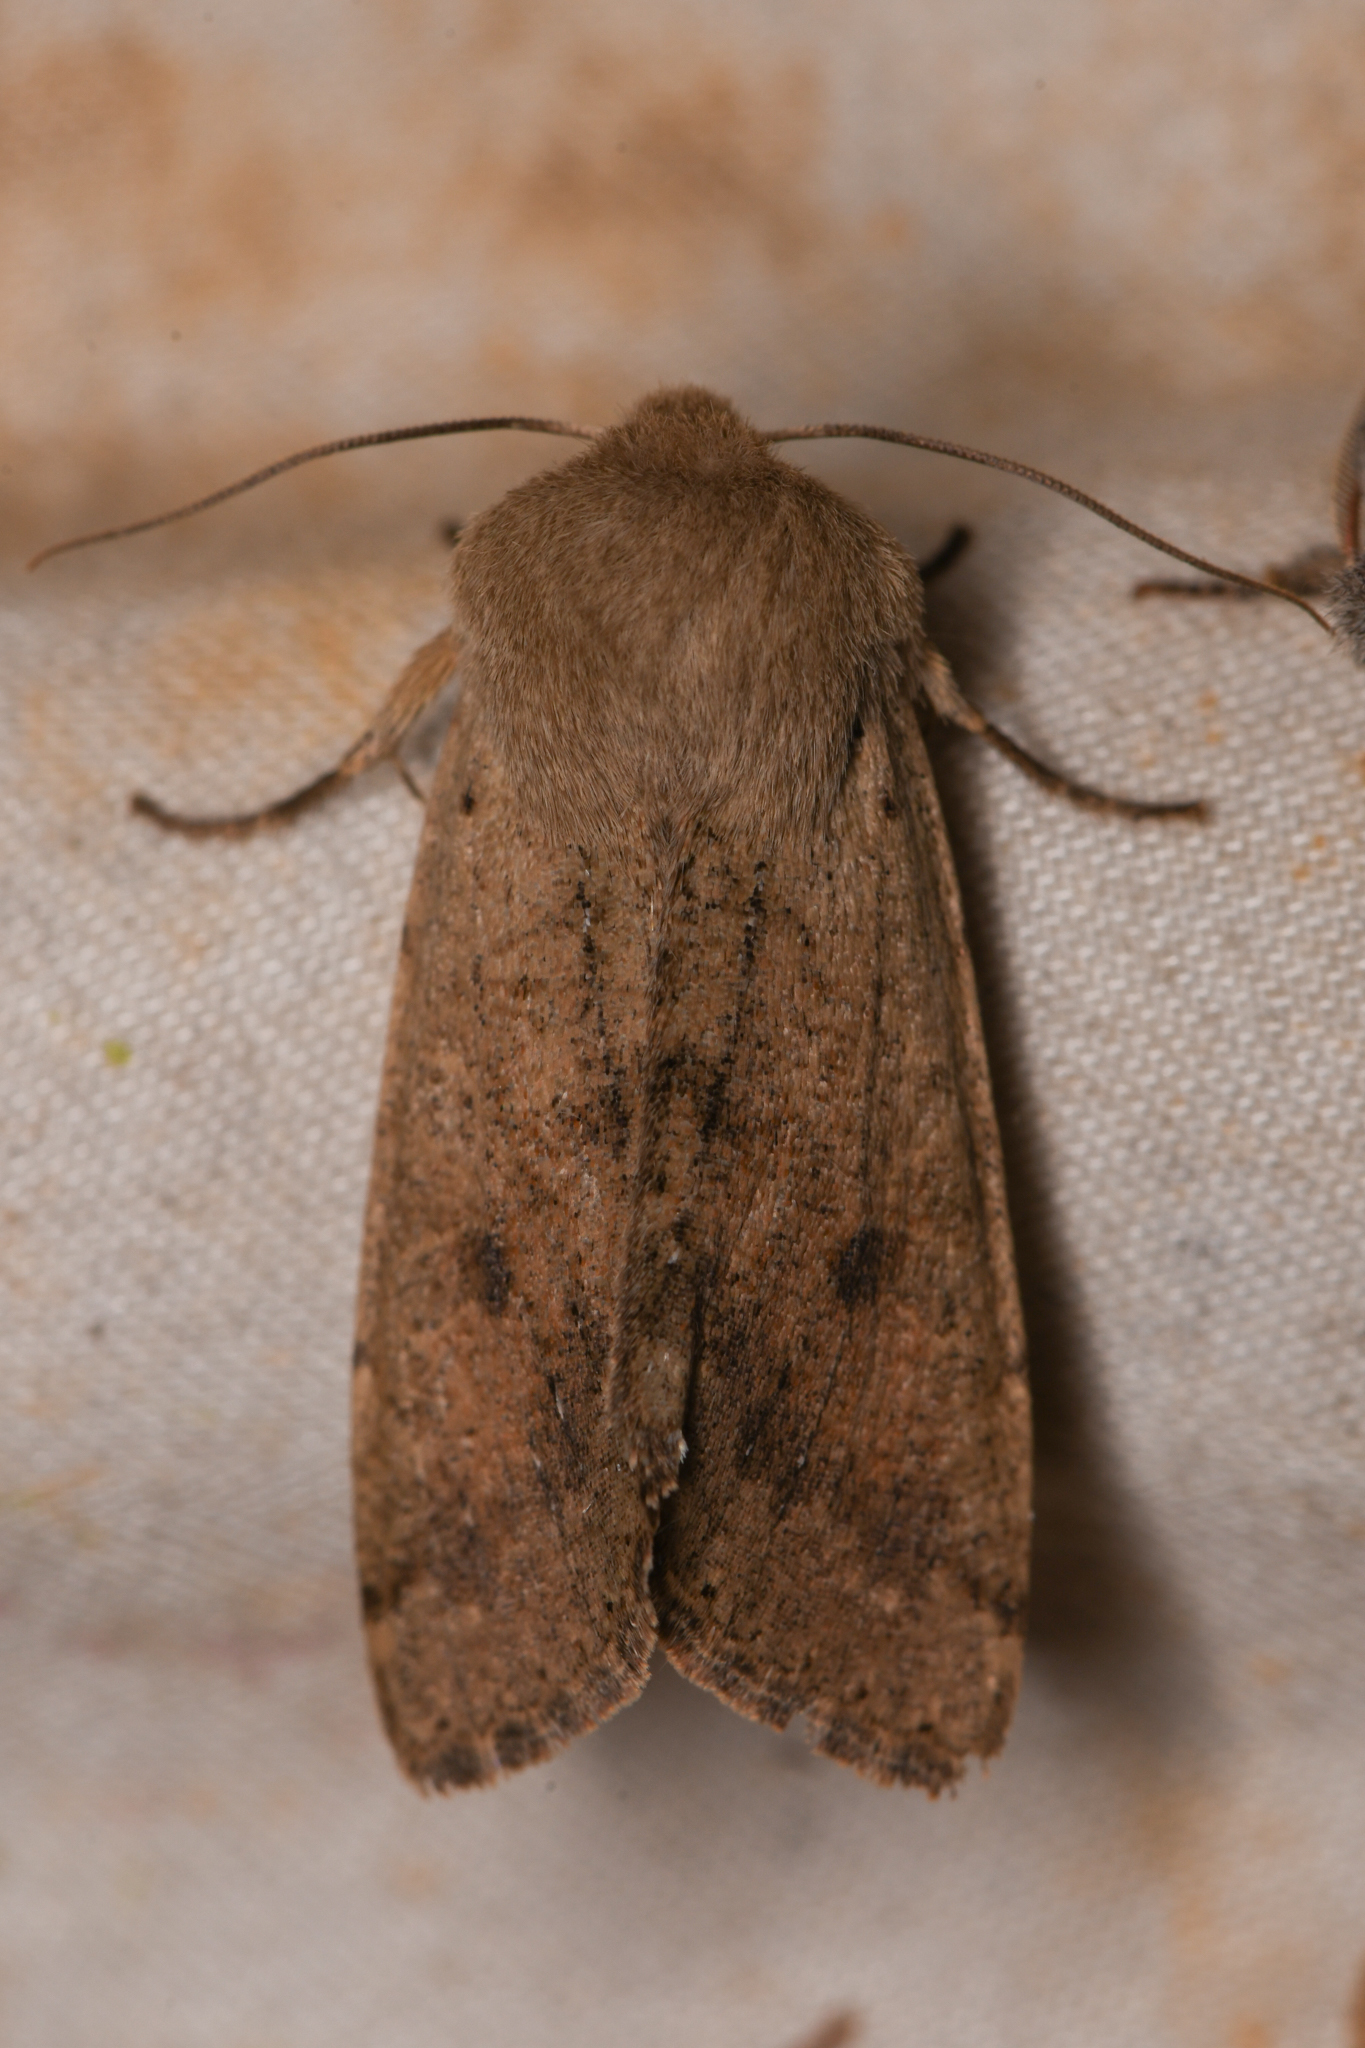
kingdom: Animalia
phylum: Arthropoda
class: Insecta
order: Lepidoptera
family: Noctuidae
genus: Orthosia
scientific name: Orthosia pacifica
